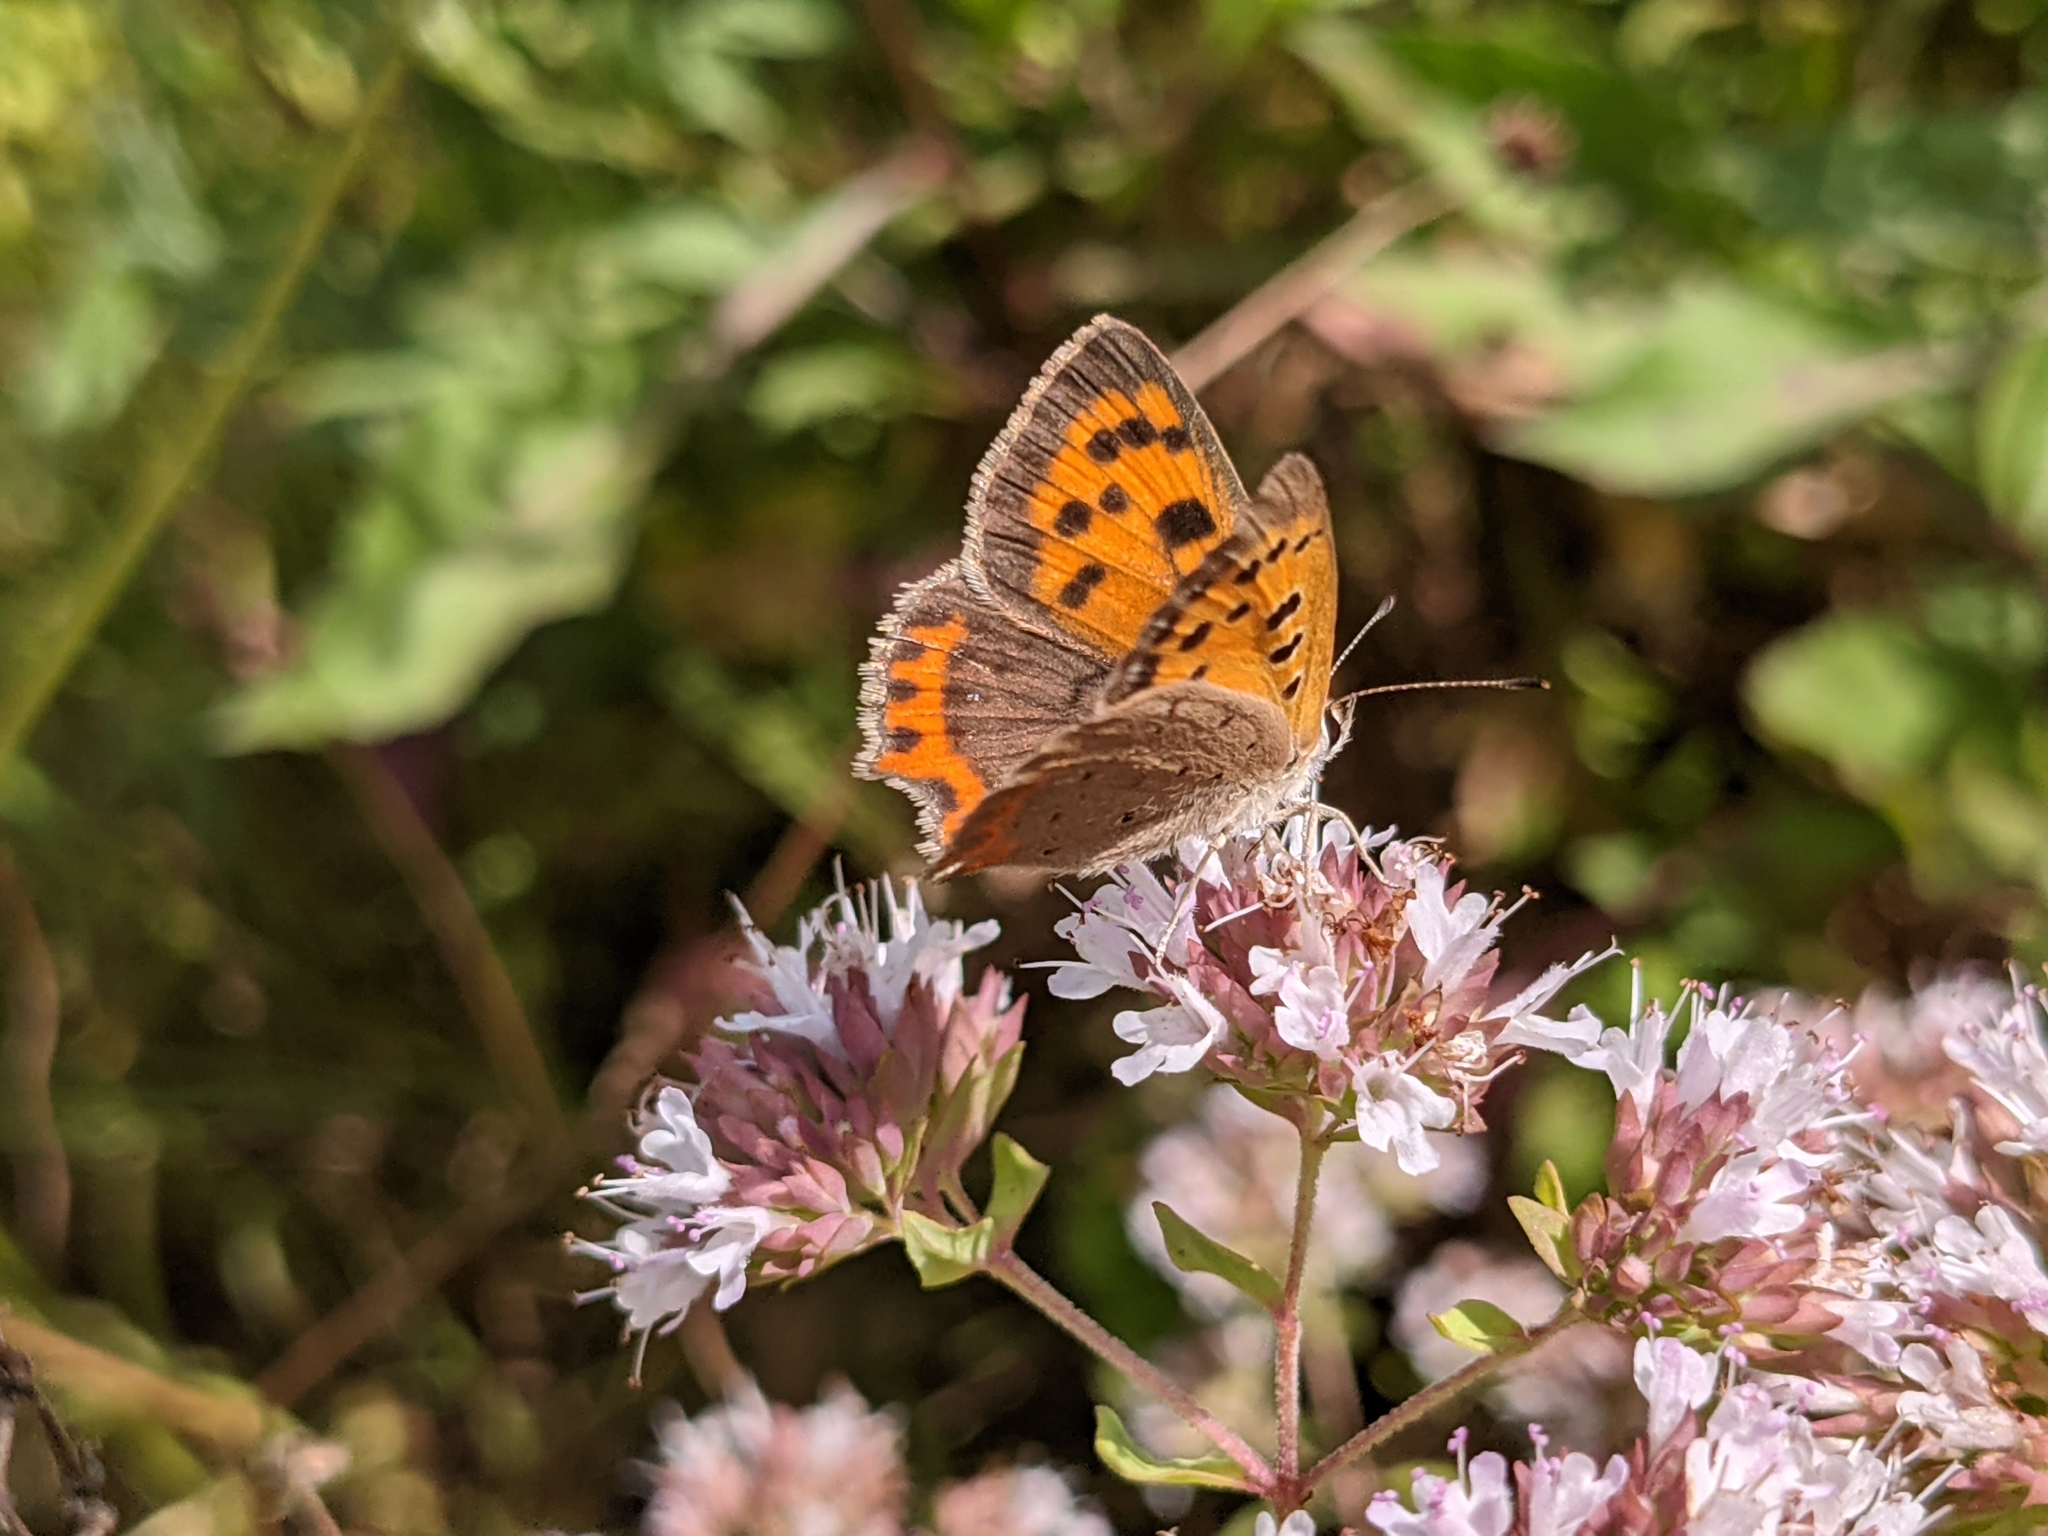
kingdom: Animalia
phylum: Arthropoda
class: Insecta
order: Lepidoptera
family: Lycaenidae
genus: Lycaena
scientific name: Lycaena phlaeas
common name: Small copper
